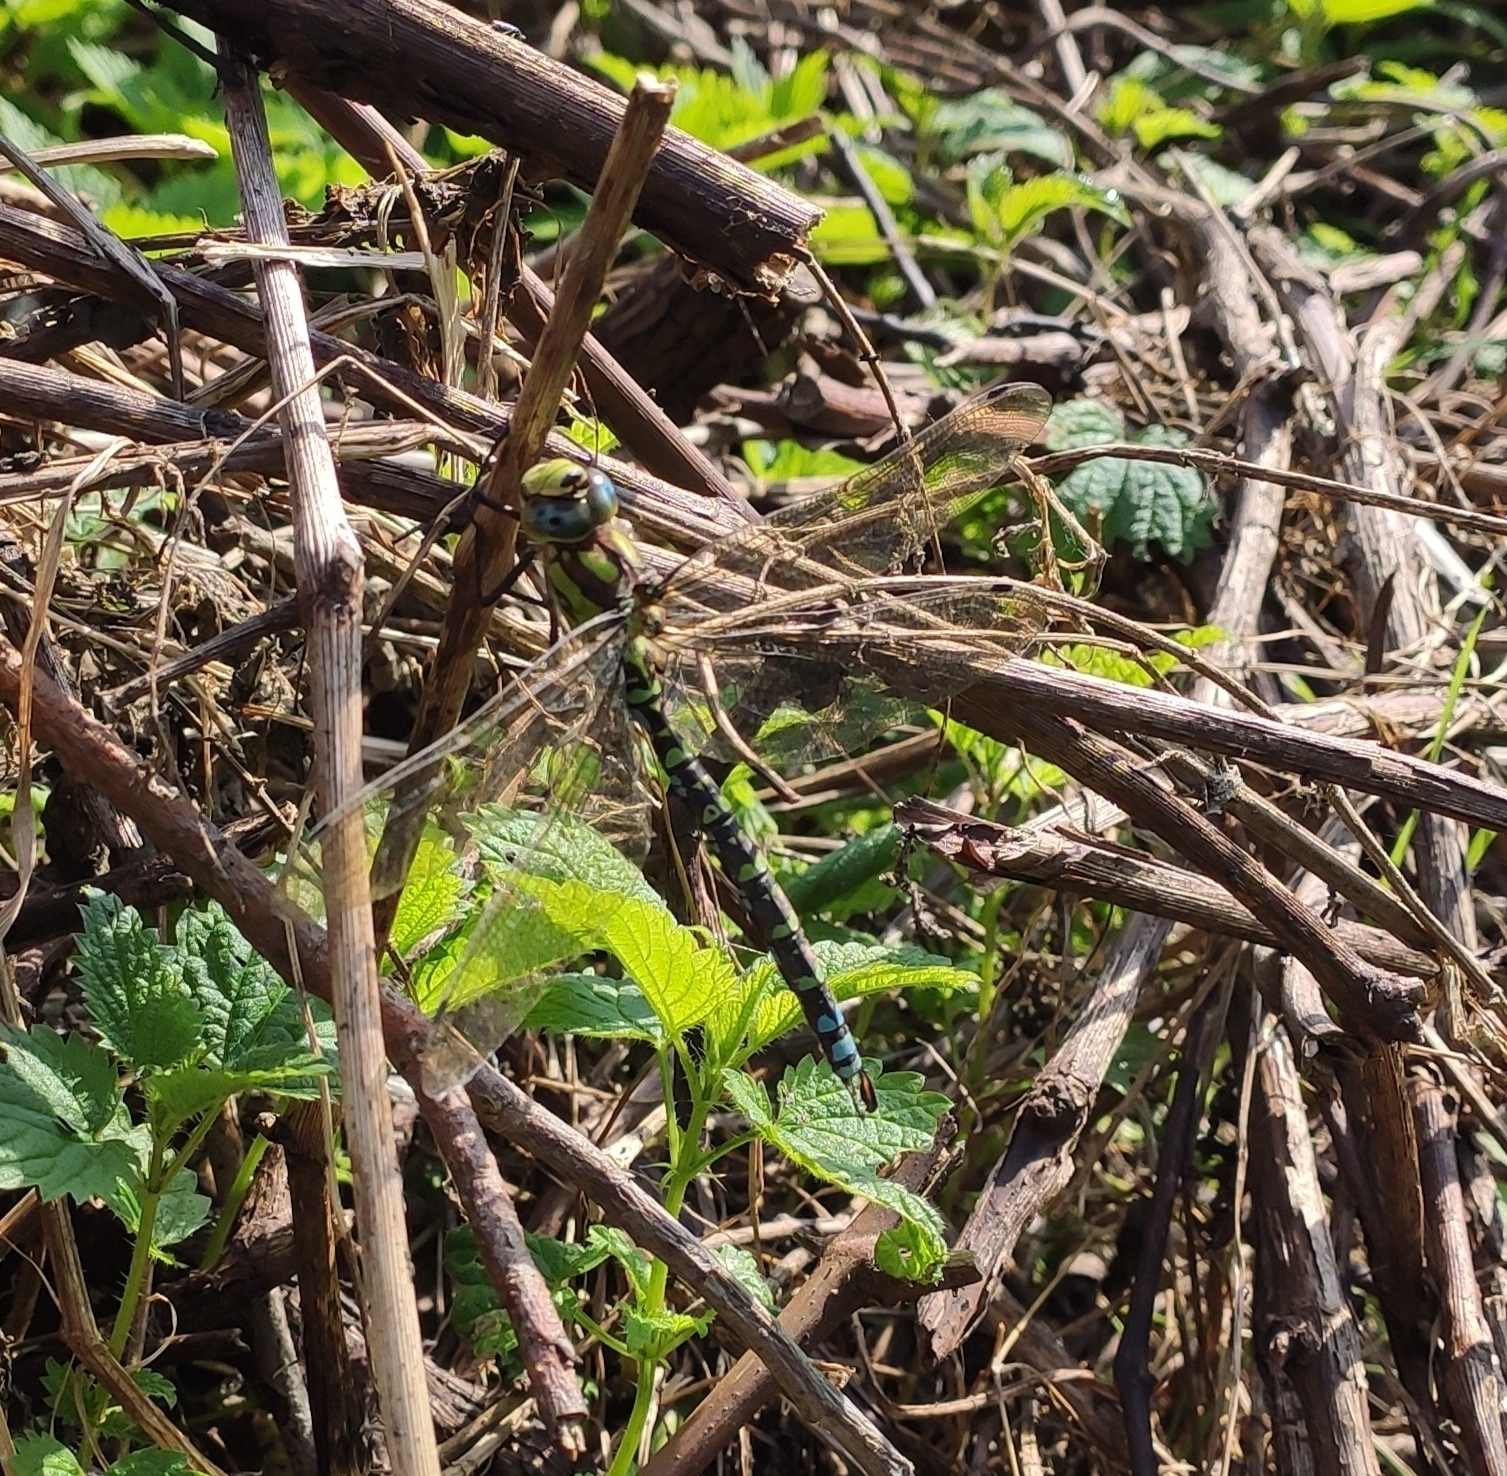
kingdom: Animalia
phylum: Arthropoda
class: Insecta
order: Odonata
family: Aeshnidae
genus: Aeshna
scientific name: Aeshna cyanea
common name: Southern hawker
